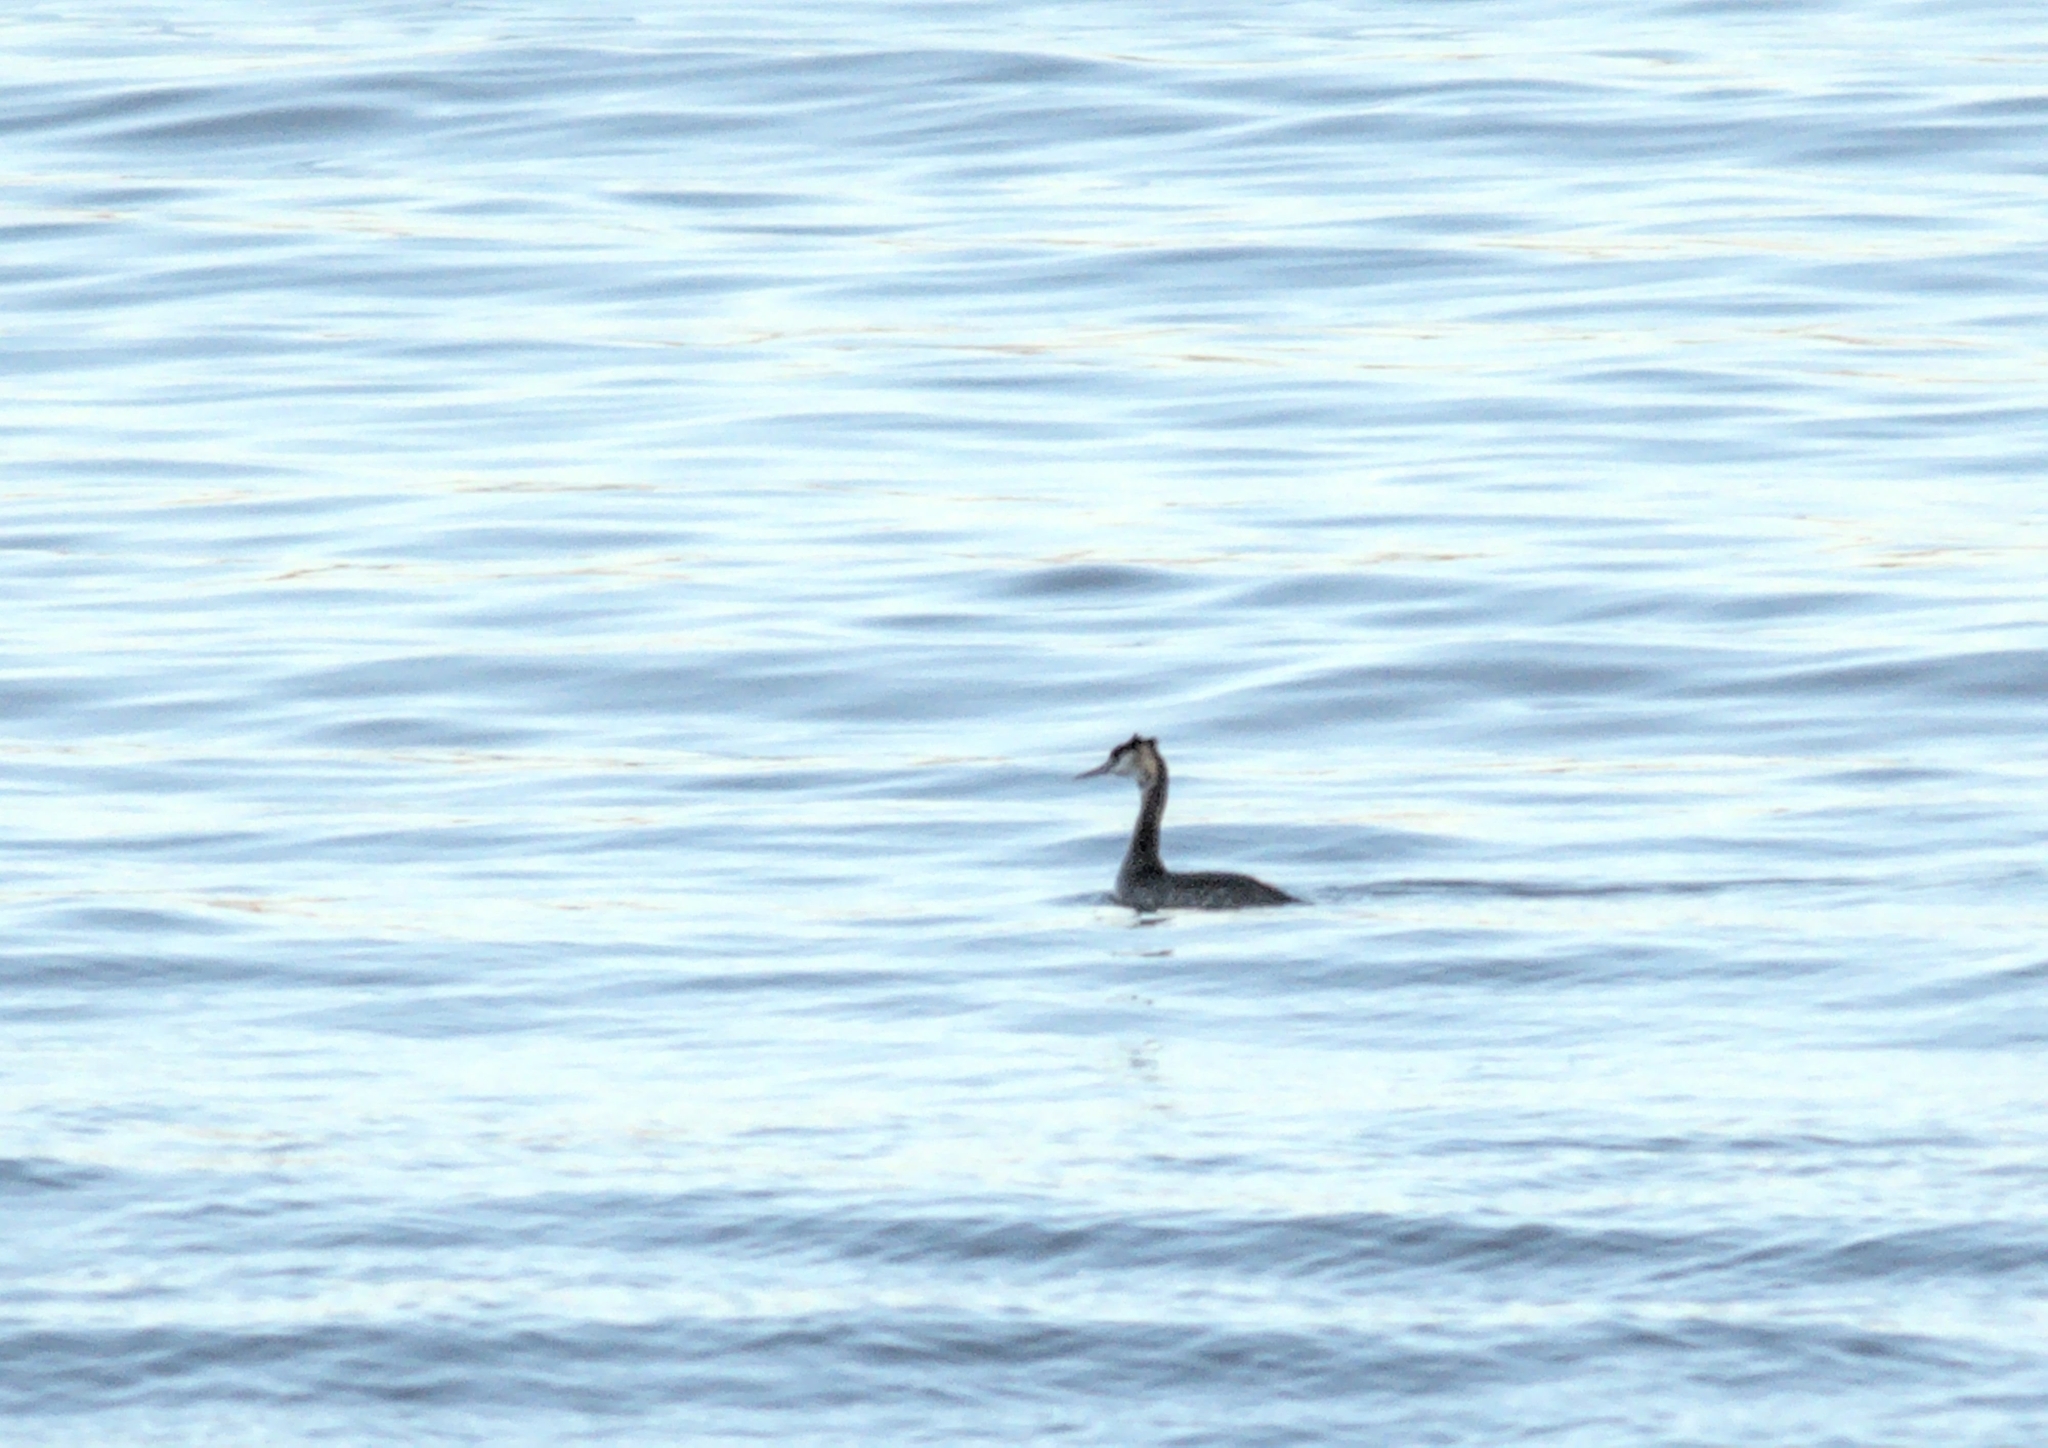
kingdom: Animalia
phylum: Chordata
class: Aves
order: Podicipediformes
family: Podicipedidae
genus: Podiceps
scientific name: Podiceps cristatus
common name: Great crested grebe
